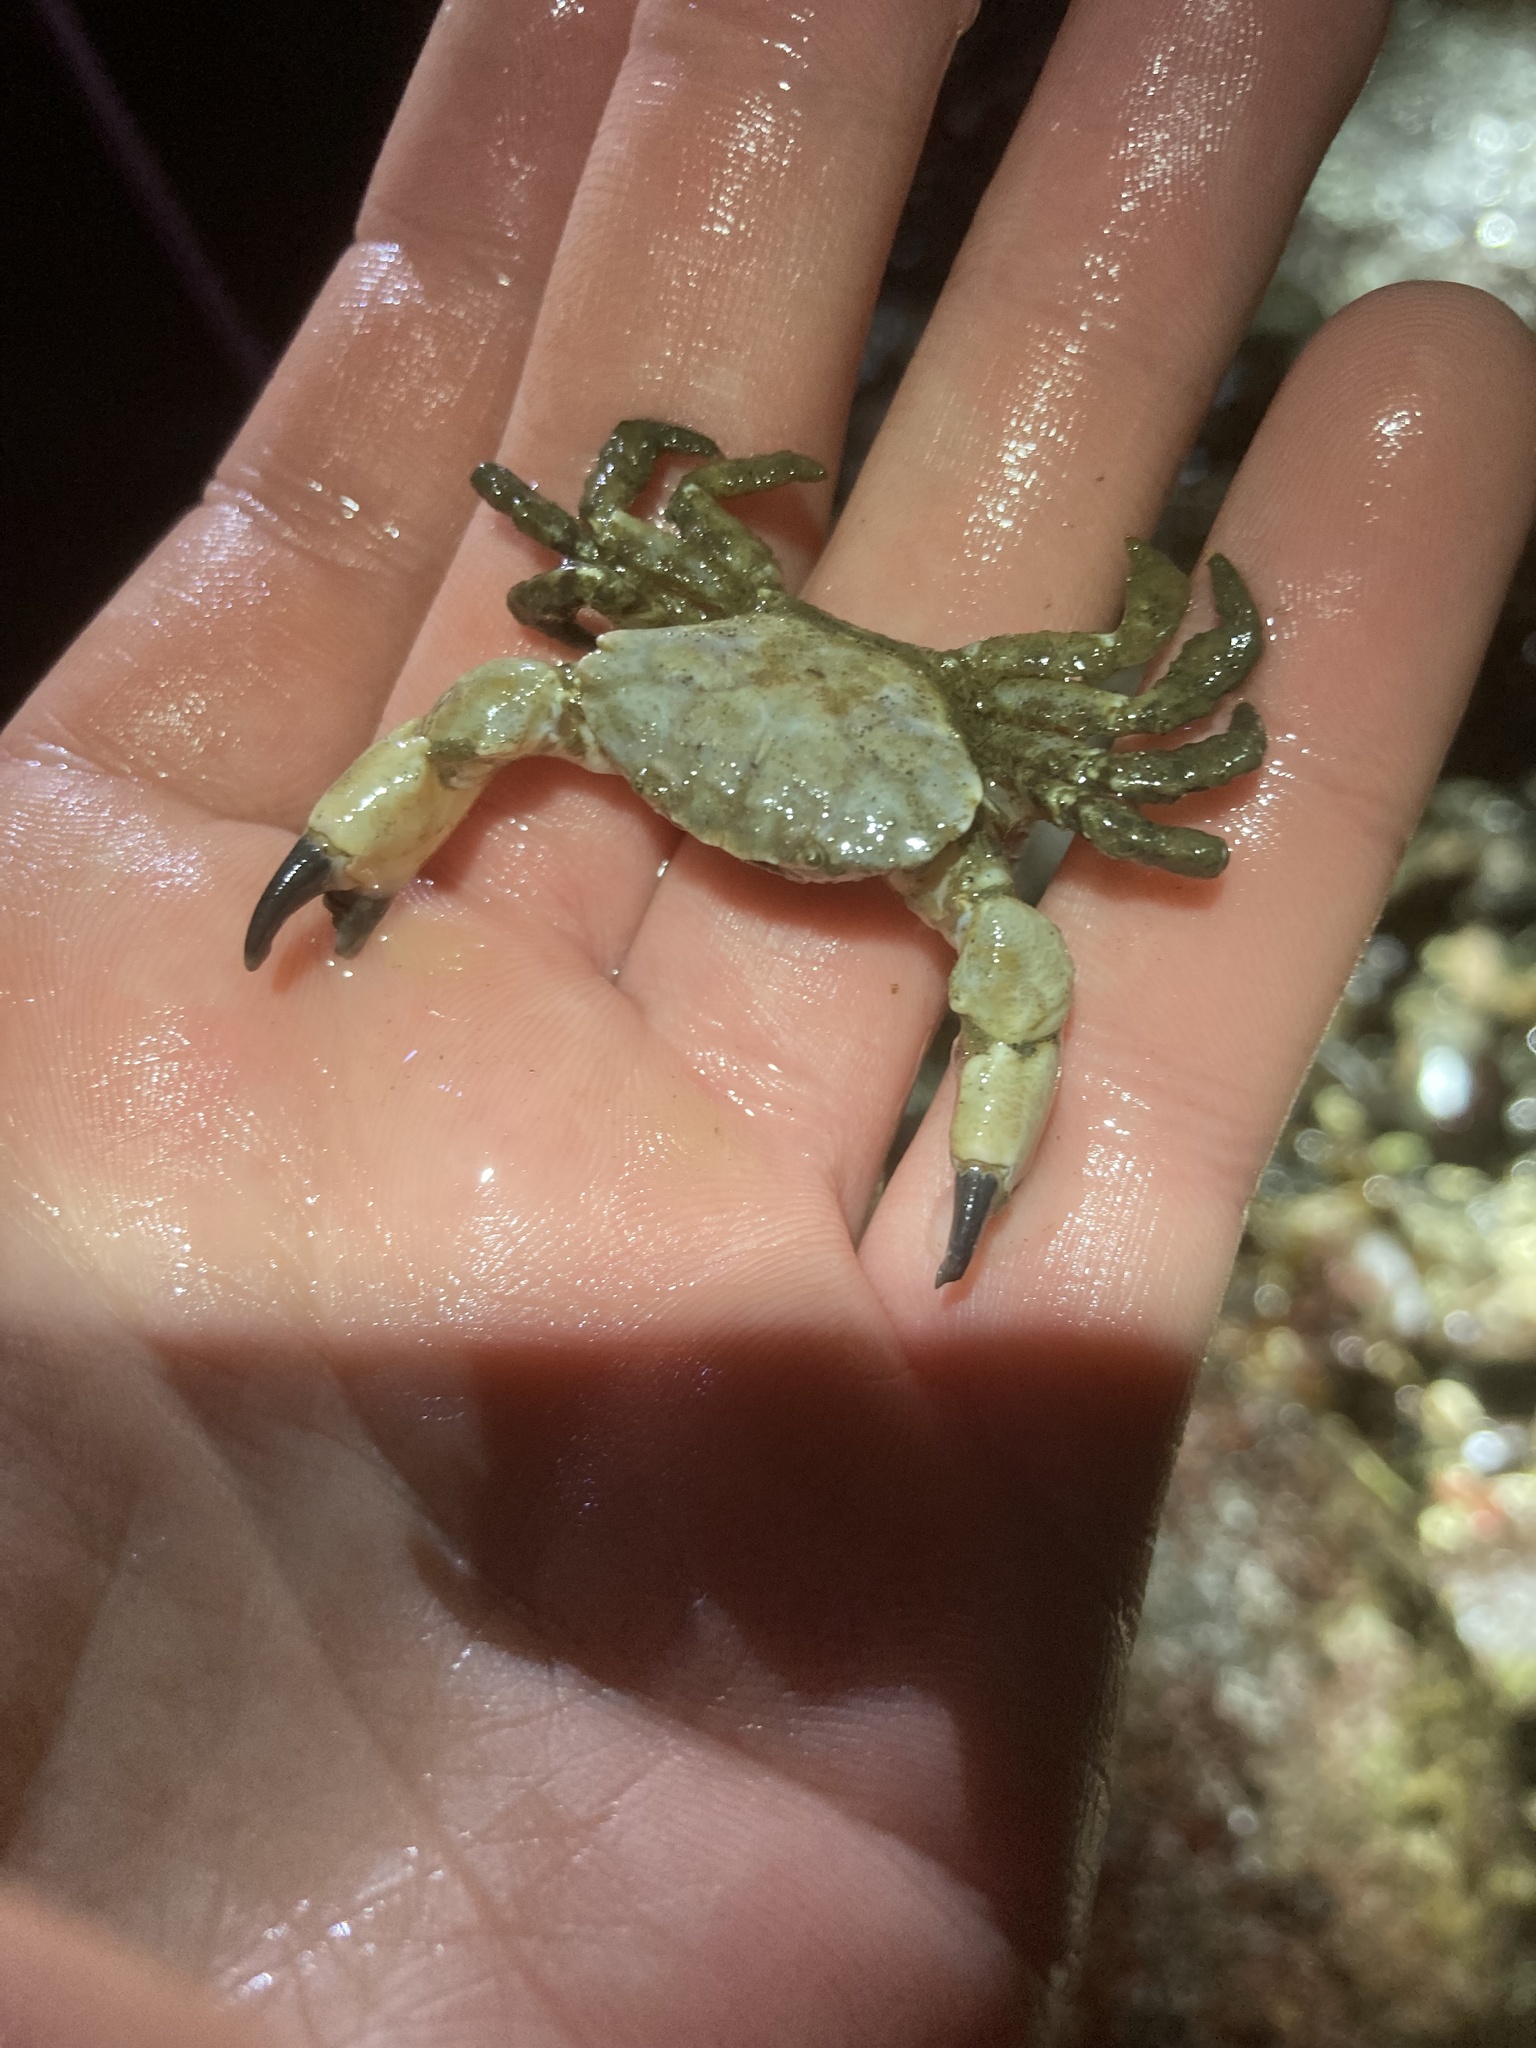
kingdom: Animalia
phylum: Arthropoda
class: Malacostraca
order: Decapoda
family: Panopeidae
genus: Lophopanopeus
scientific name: Lophopanopeus bellus
